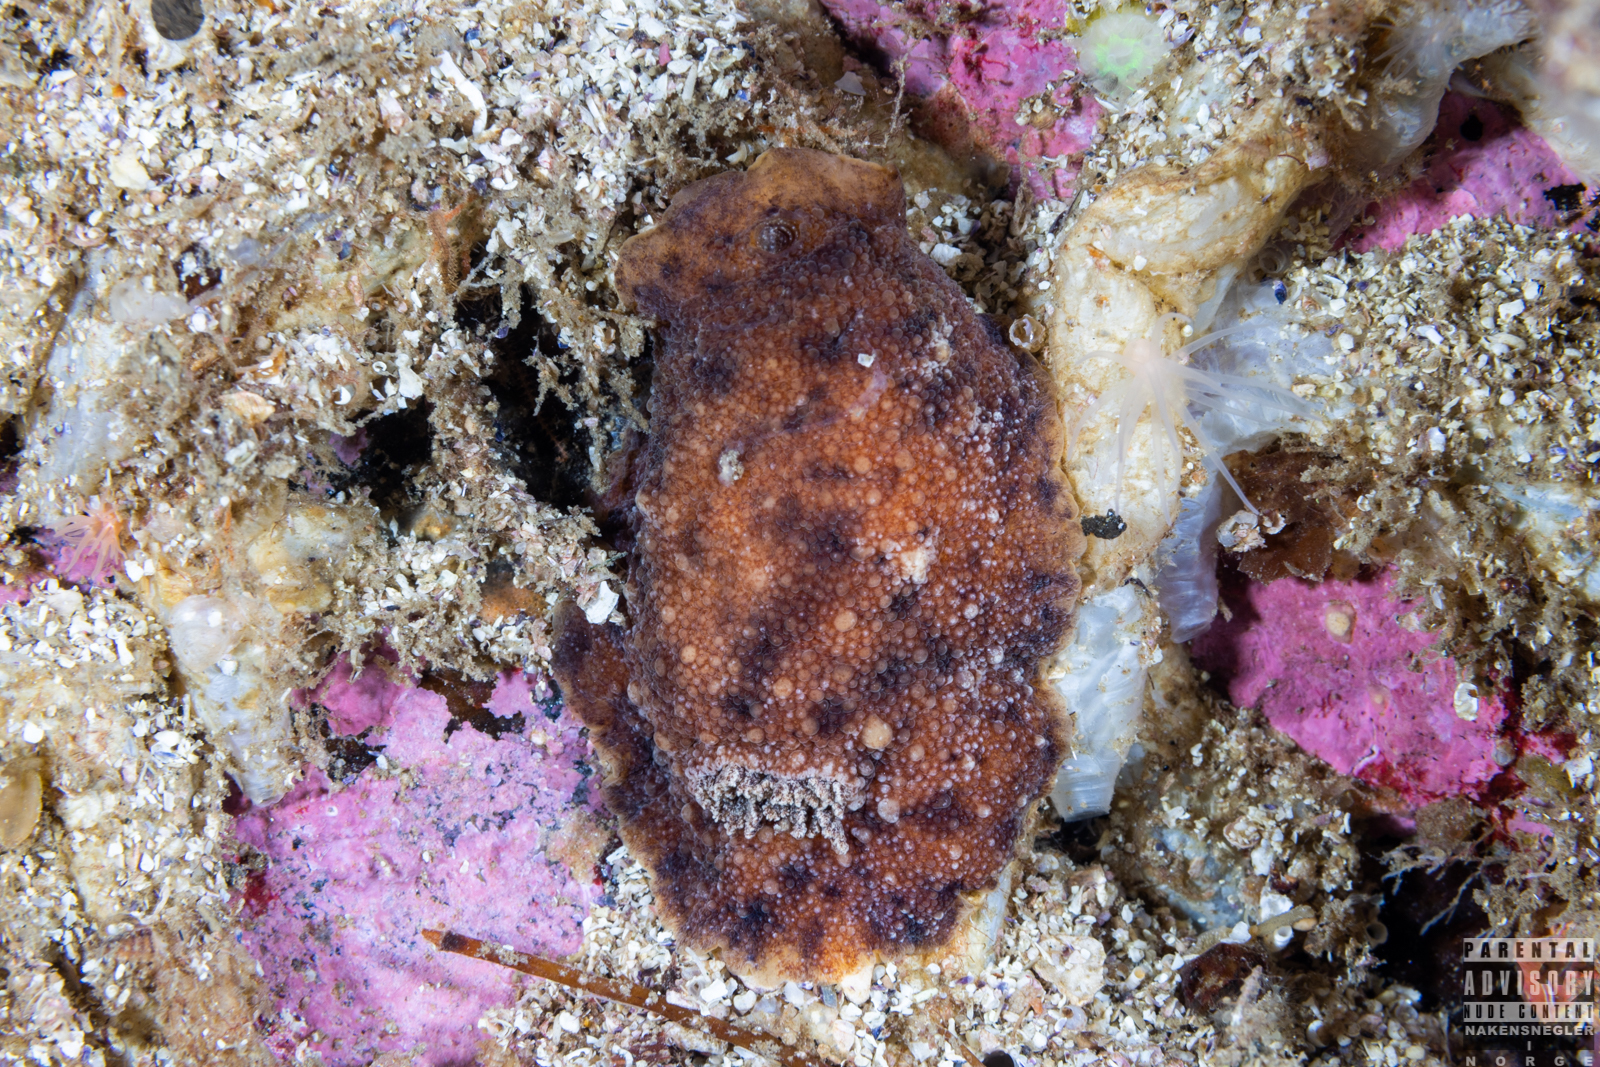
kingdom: Animalia
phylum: Mollusca
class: Gastropoda
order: Nudibranchia
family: Dorididae
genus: Doris
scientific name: Doris pseudoargus
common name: Sea lemon
